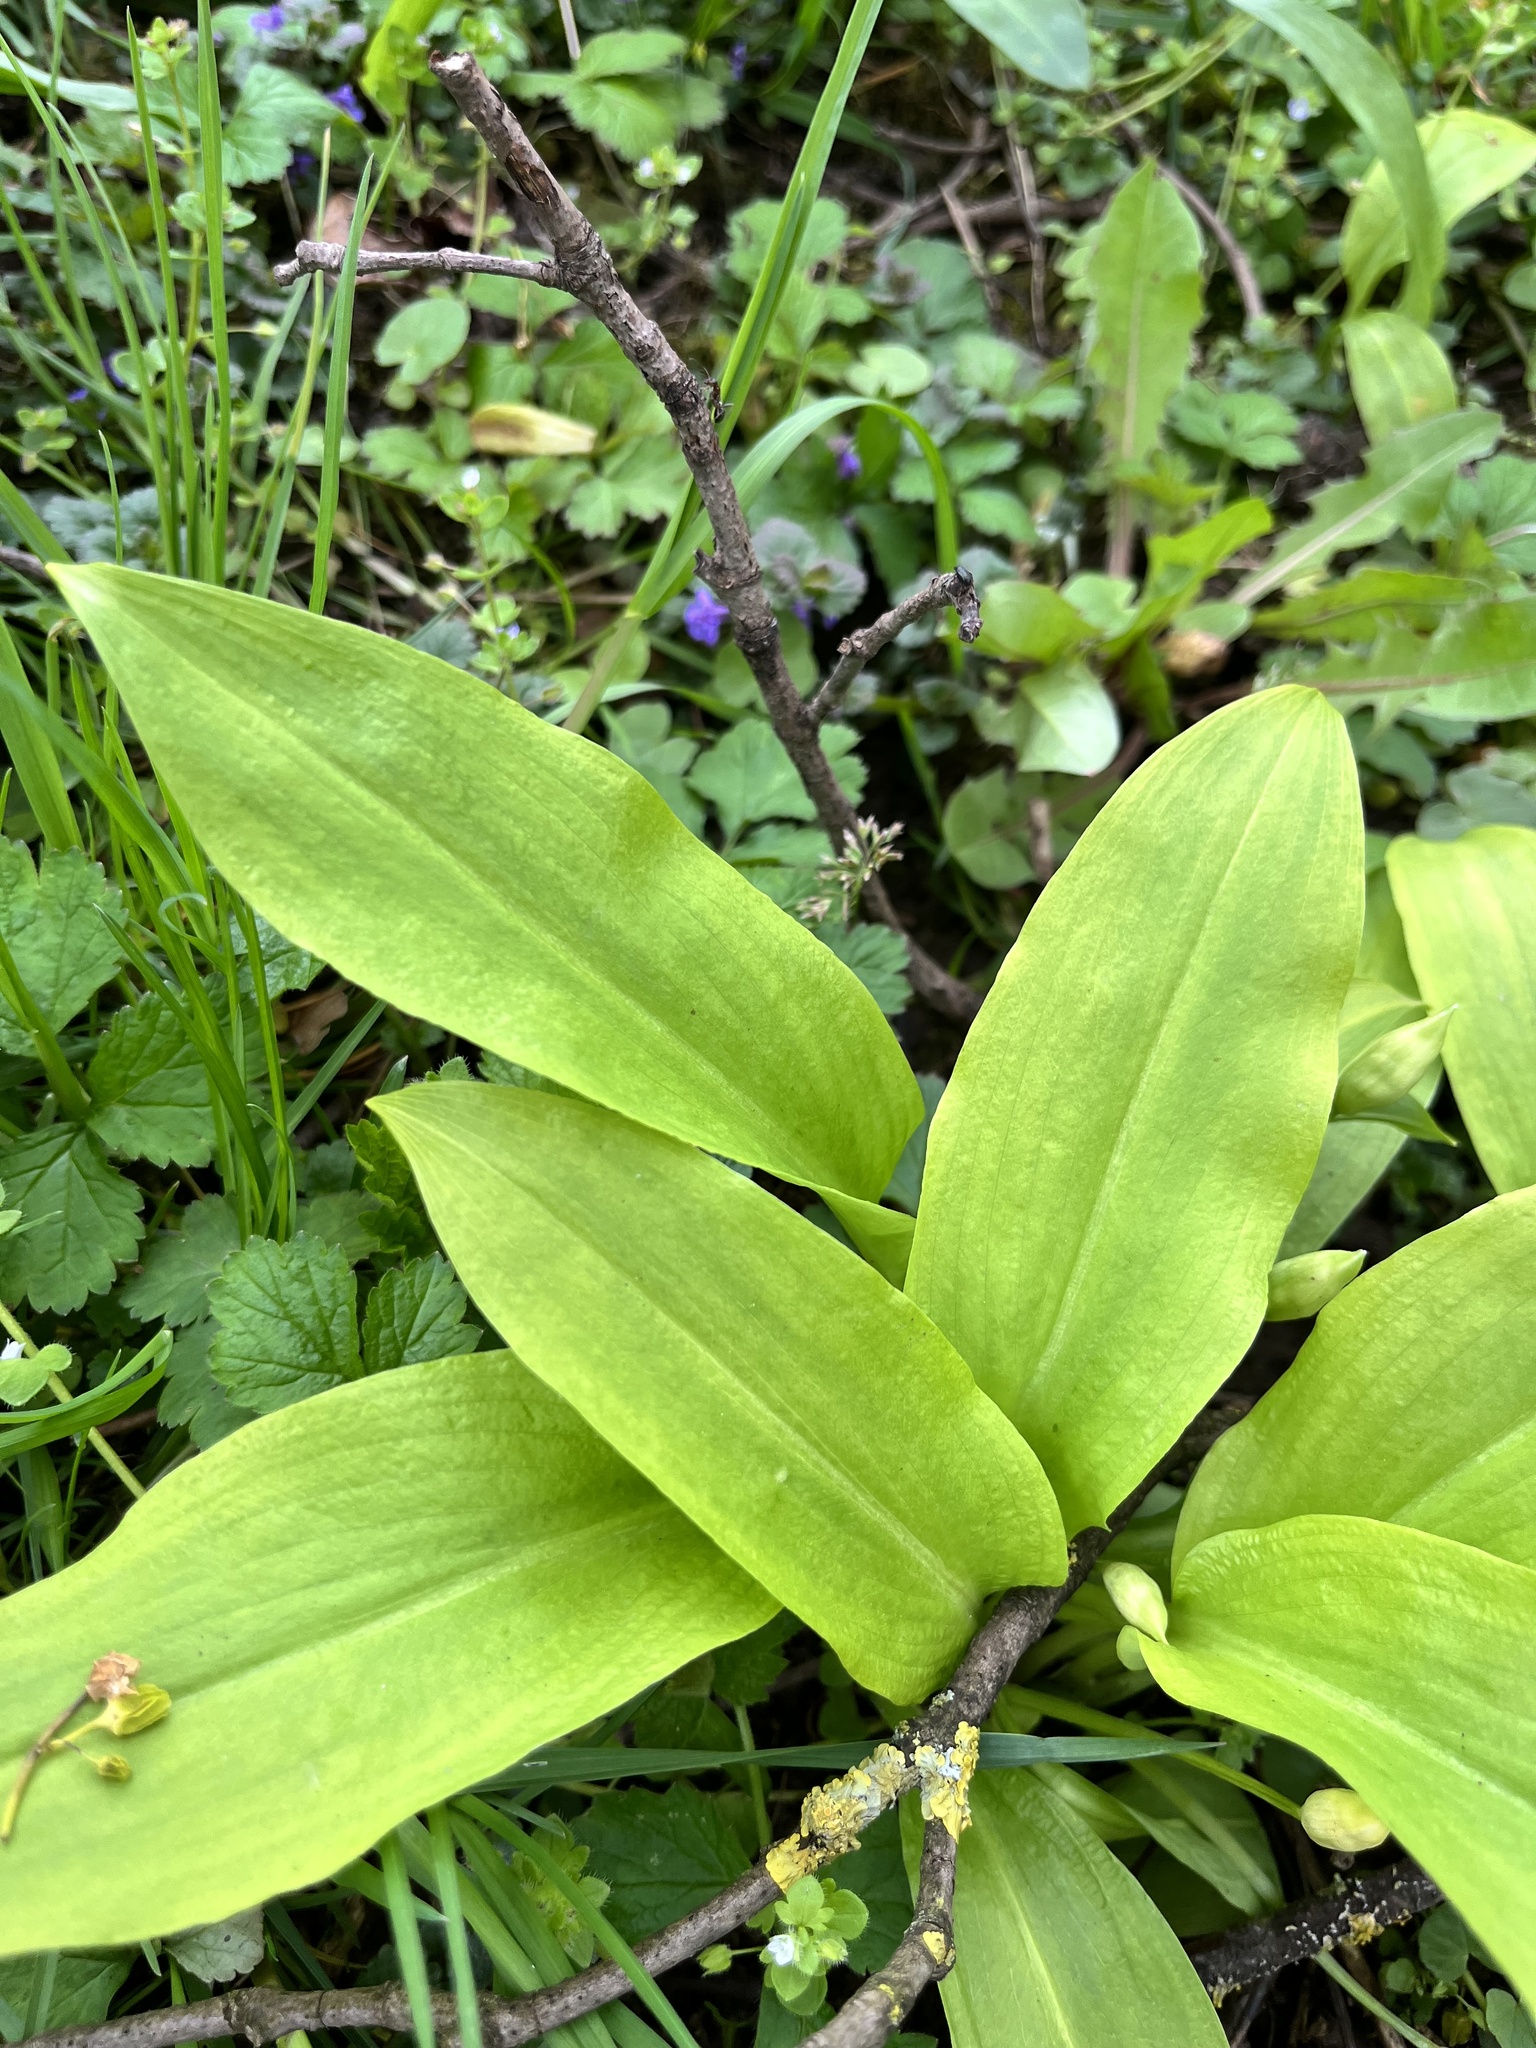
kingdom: Plantae
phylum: Tracheophyta
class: Liliopsida
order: Asparagales
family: Amaryllidaceae
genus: Allium
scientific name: Allium ursinum
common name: Ramsons
